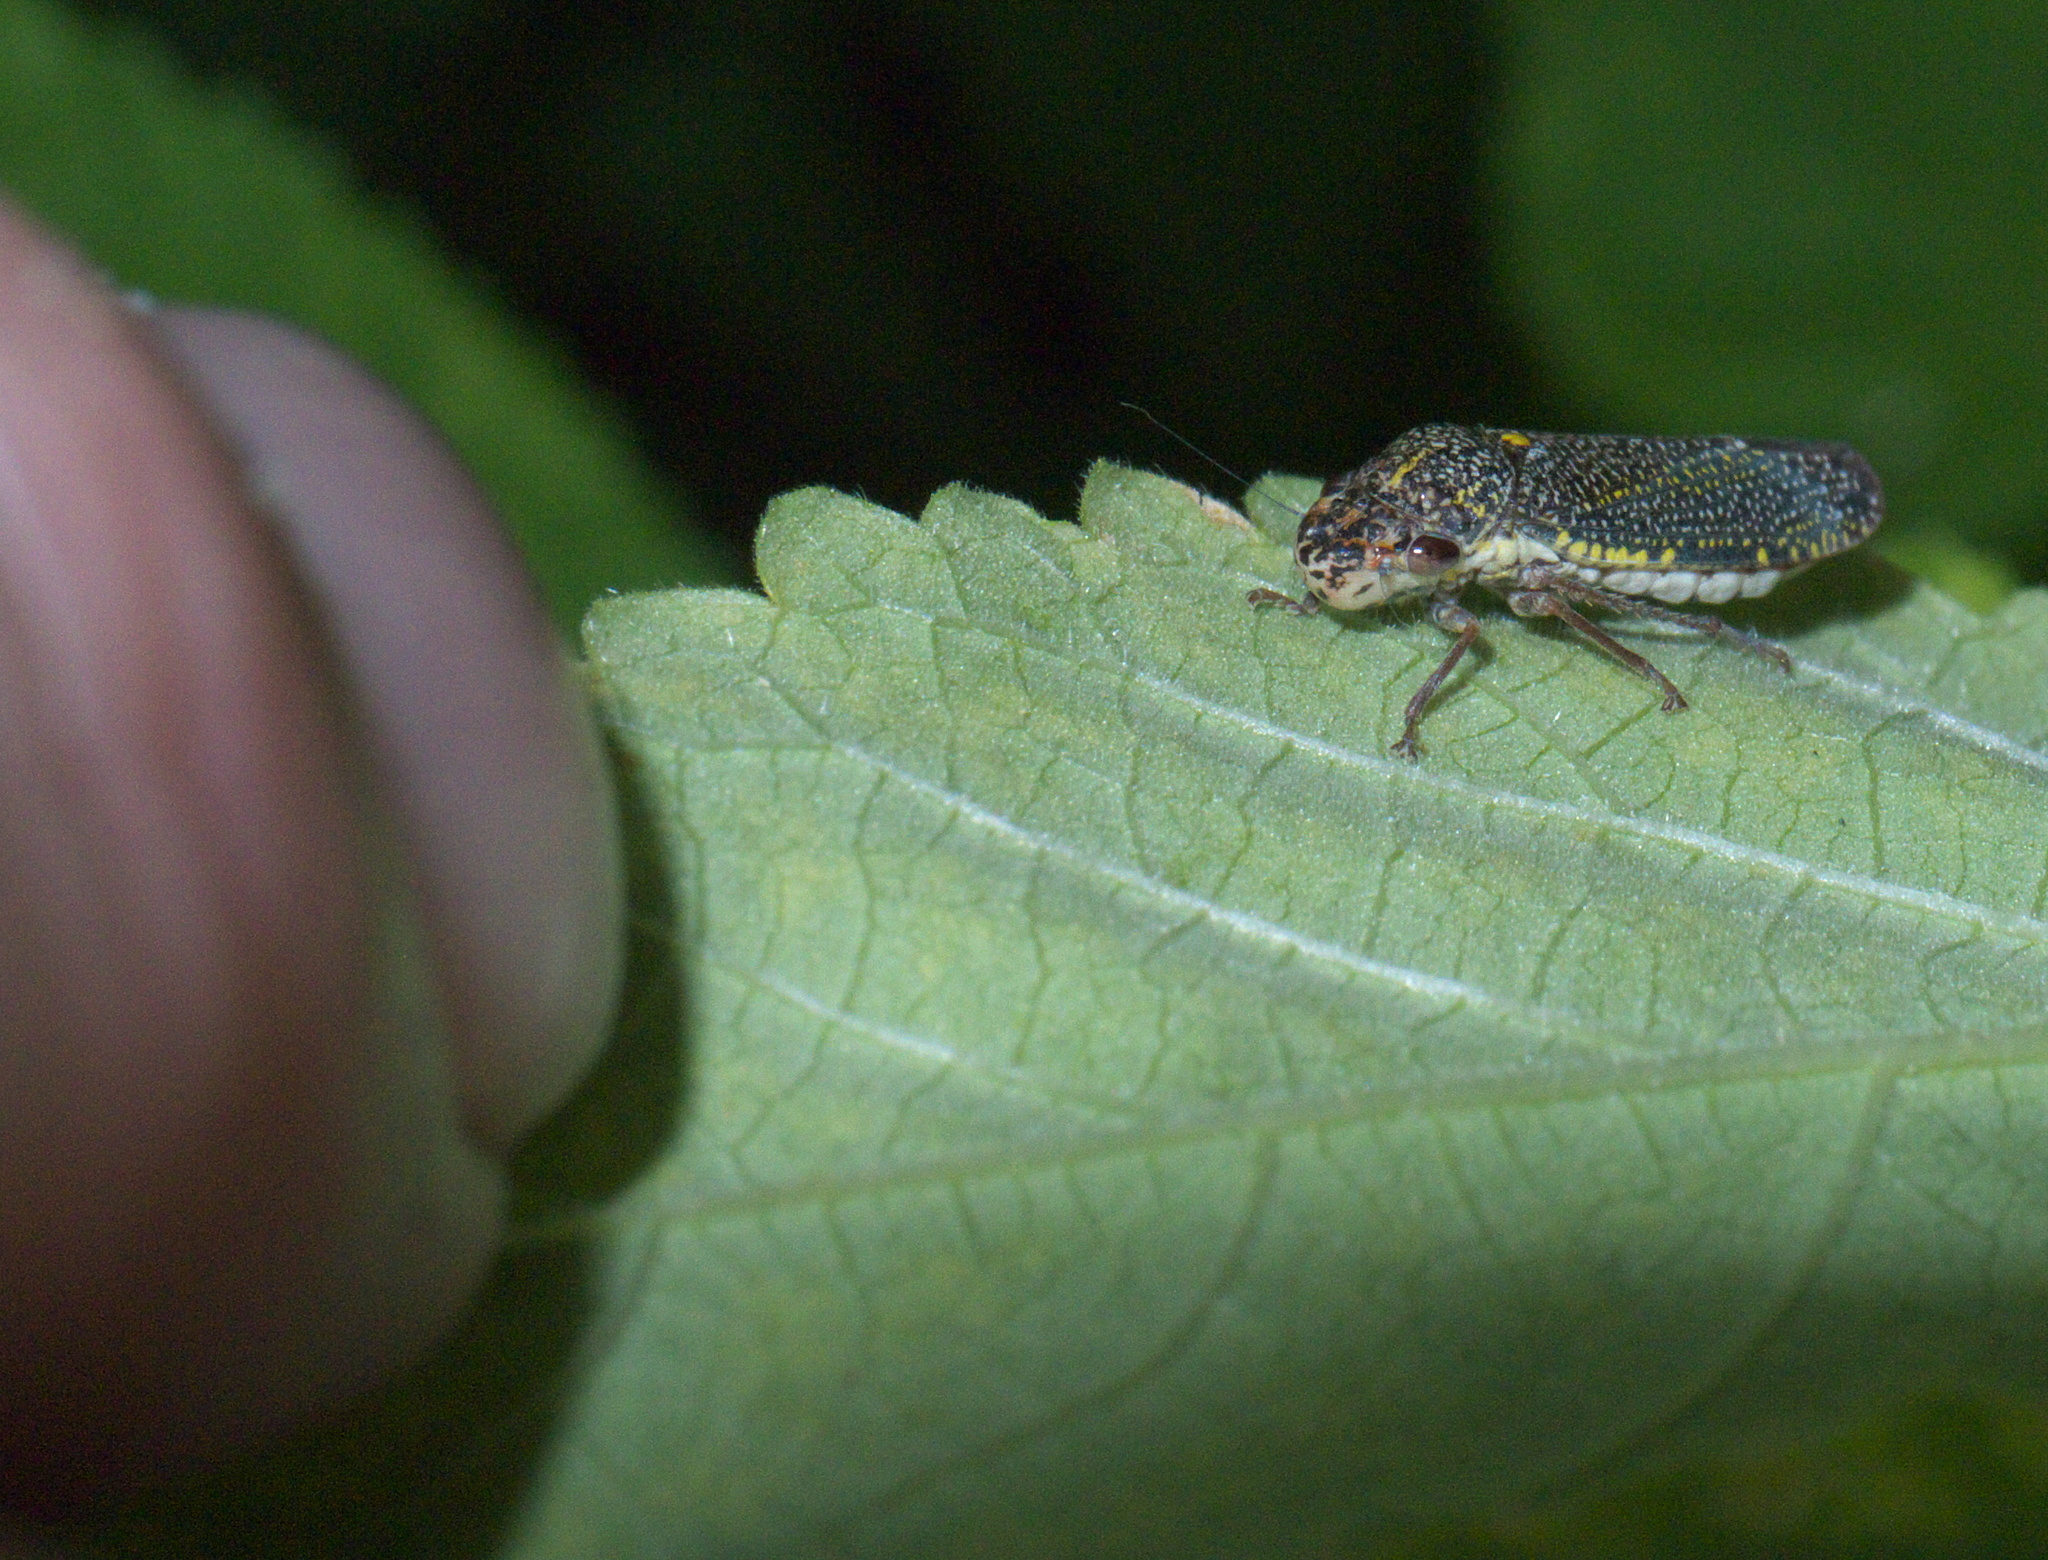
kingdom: Animalia
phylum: Arthropoda
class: Insecta
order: Hemiptera
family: Cicadellidae
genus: Paraulacizes
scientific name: Paraulacizes irrorata
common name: Speckled sharpshooter
